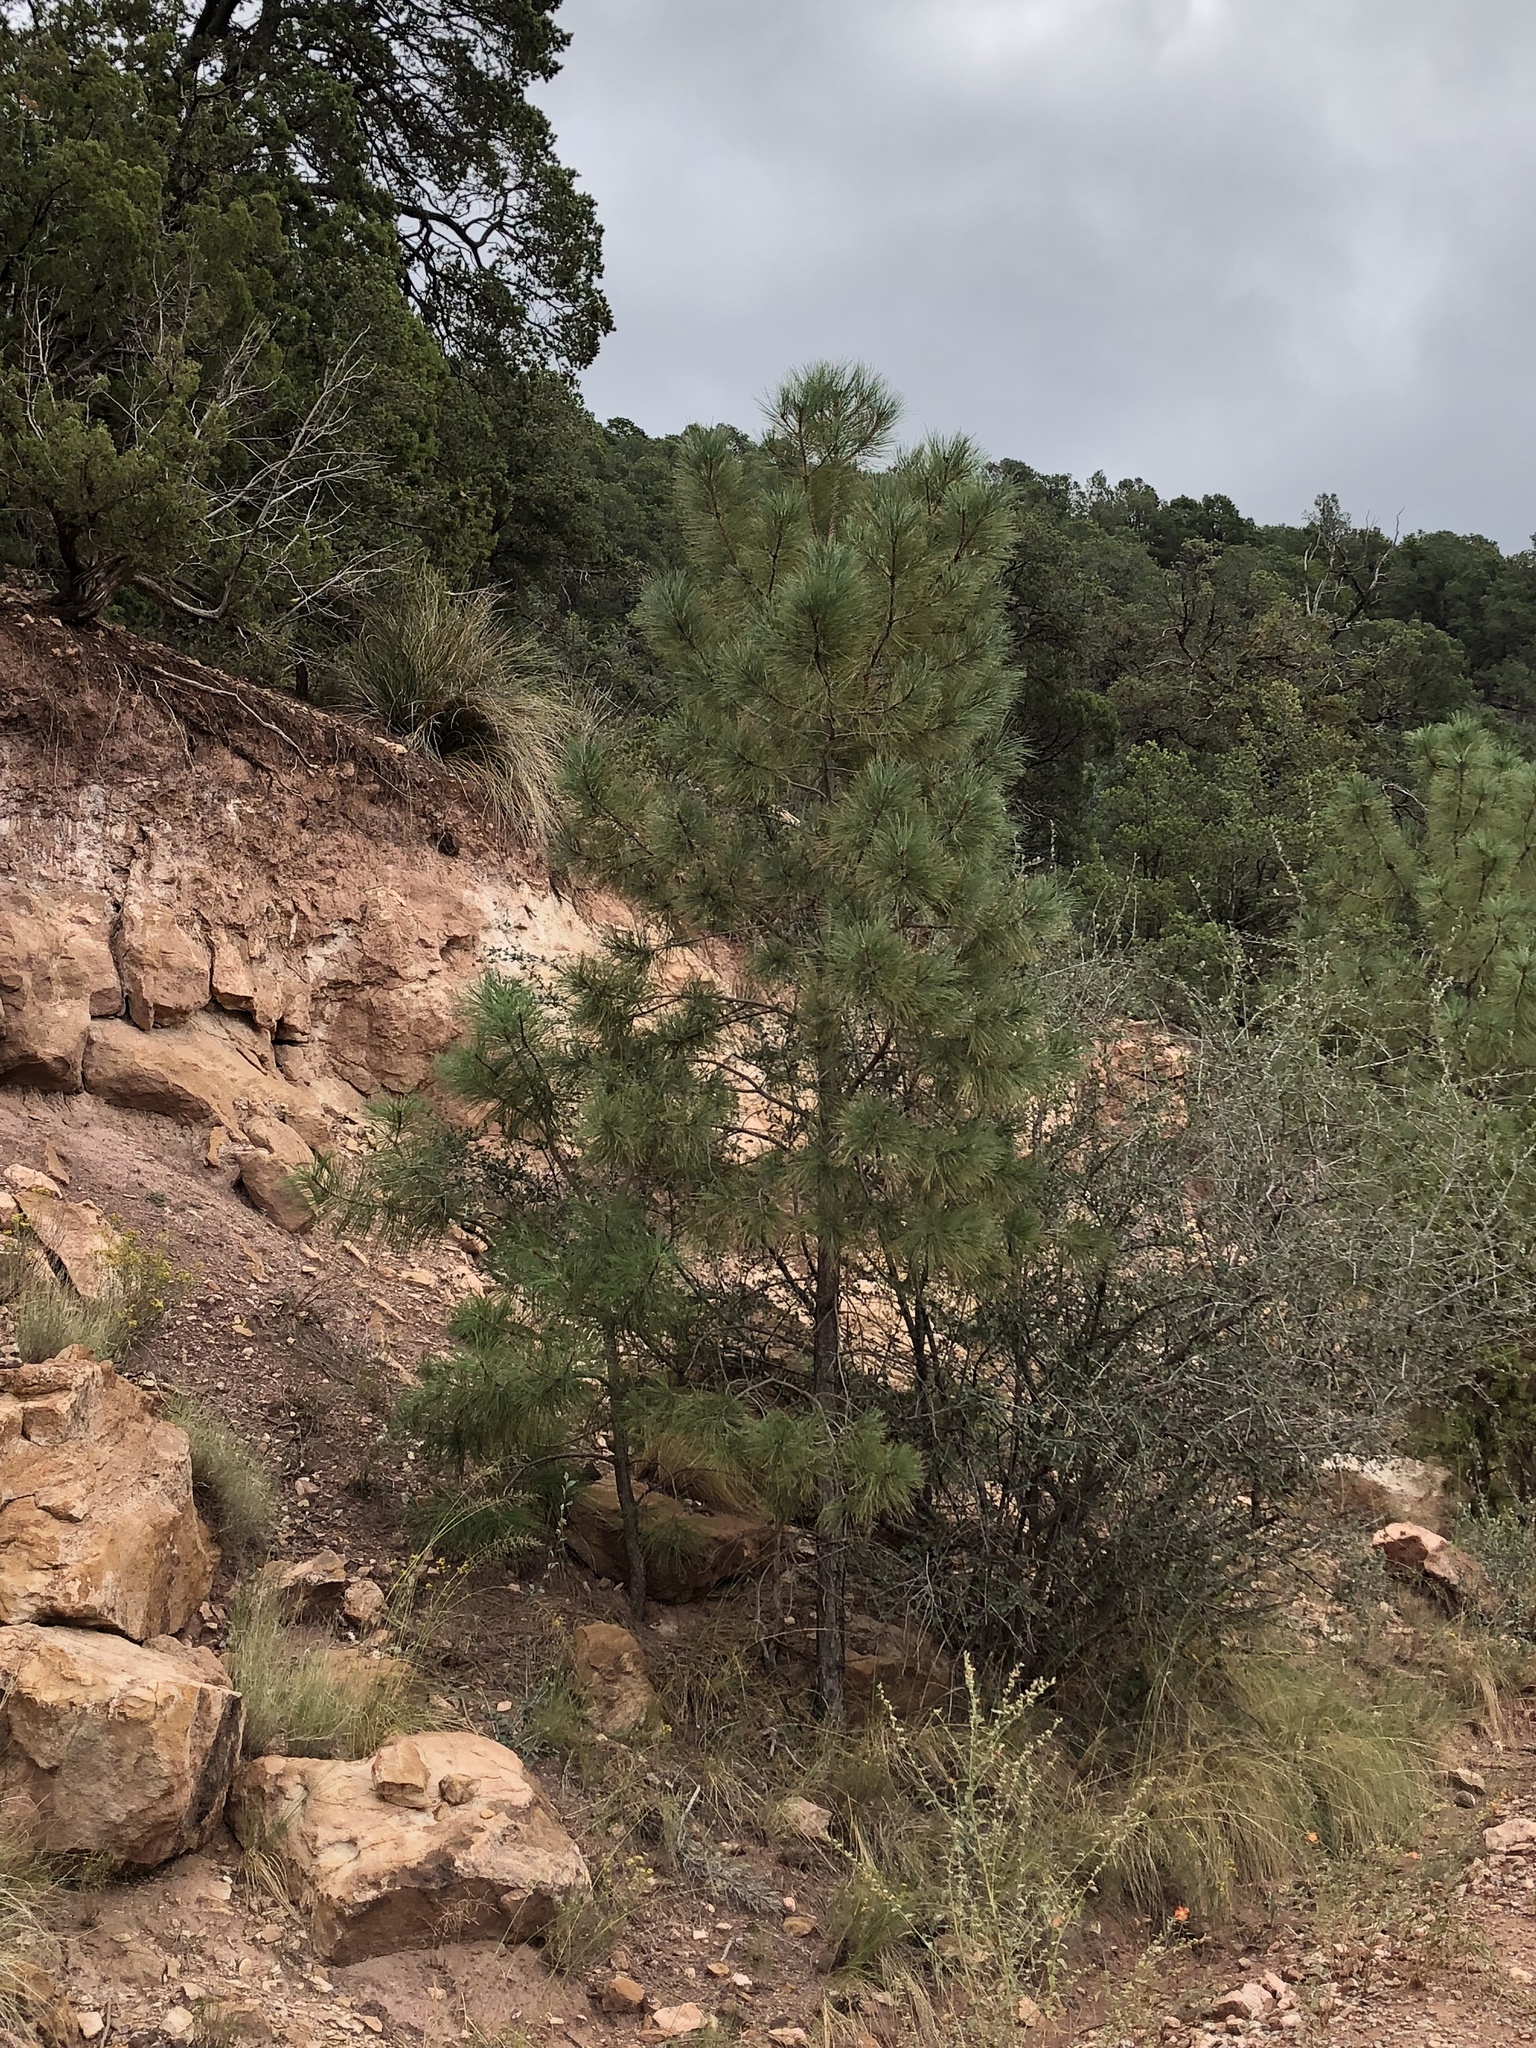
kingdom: Plantae
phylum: Tracheophyta
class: Pinopsida
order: Pinales
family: Pinaceae
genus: Pinus
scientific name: Pinus ponderosa
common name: Western yellow-pine
